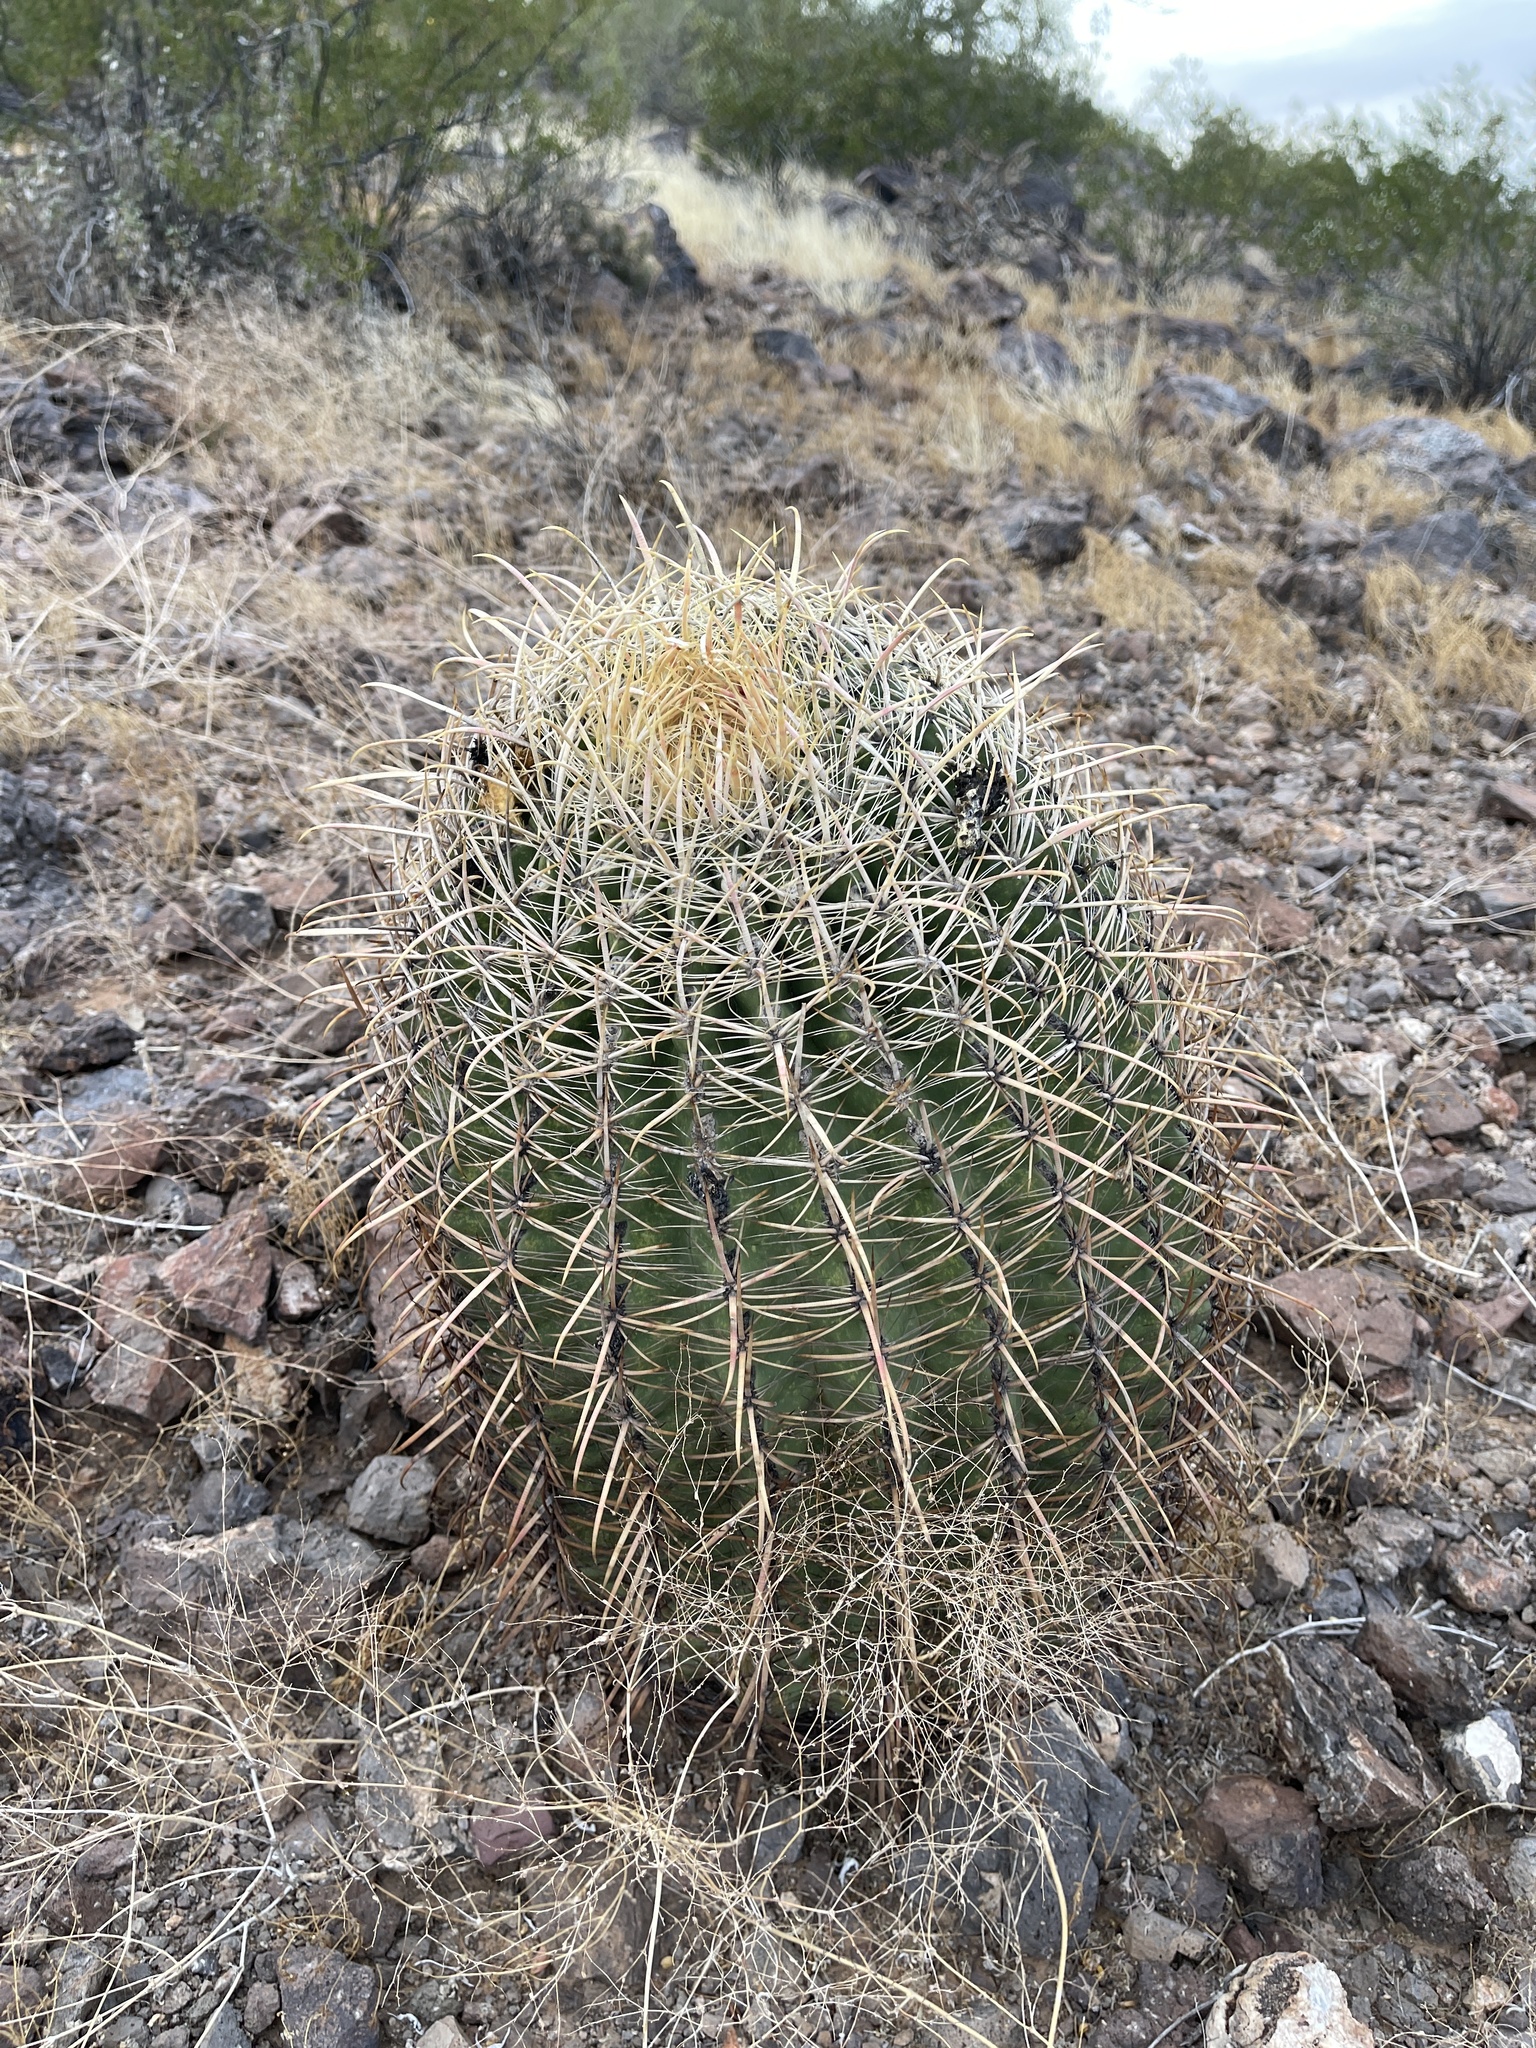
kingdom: Plantae
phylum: Tracheophyta
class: Magnoliopsida
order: Caryophyllales
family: Cactaceae
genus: Ferocactus
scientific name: Ferocactus cylindraceus
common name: California barrel cactus
